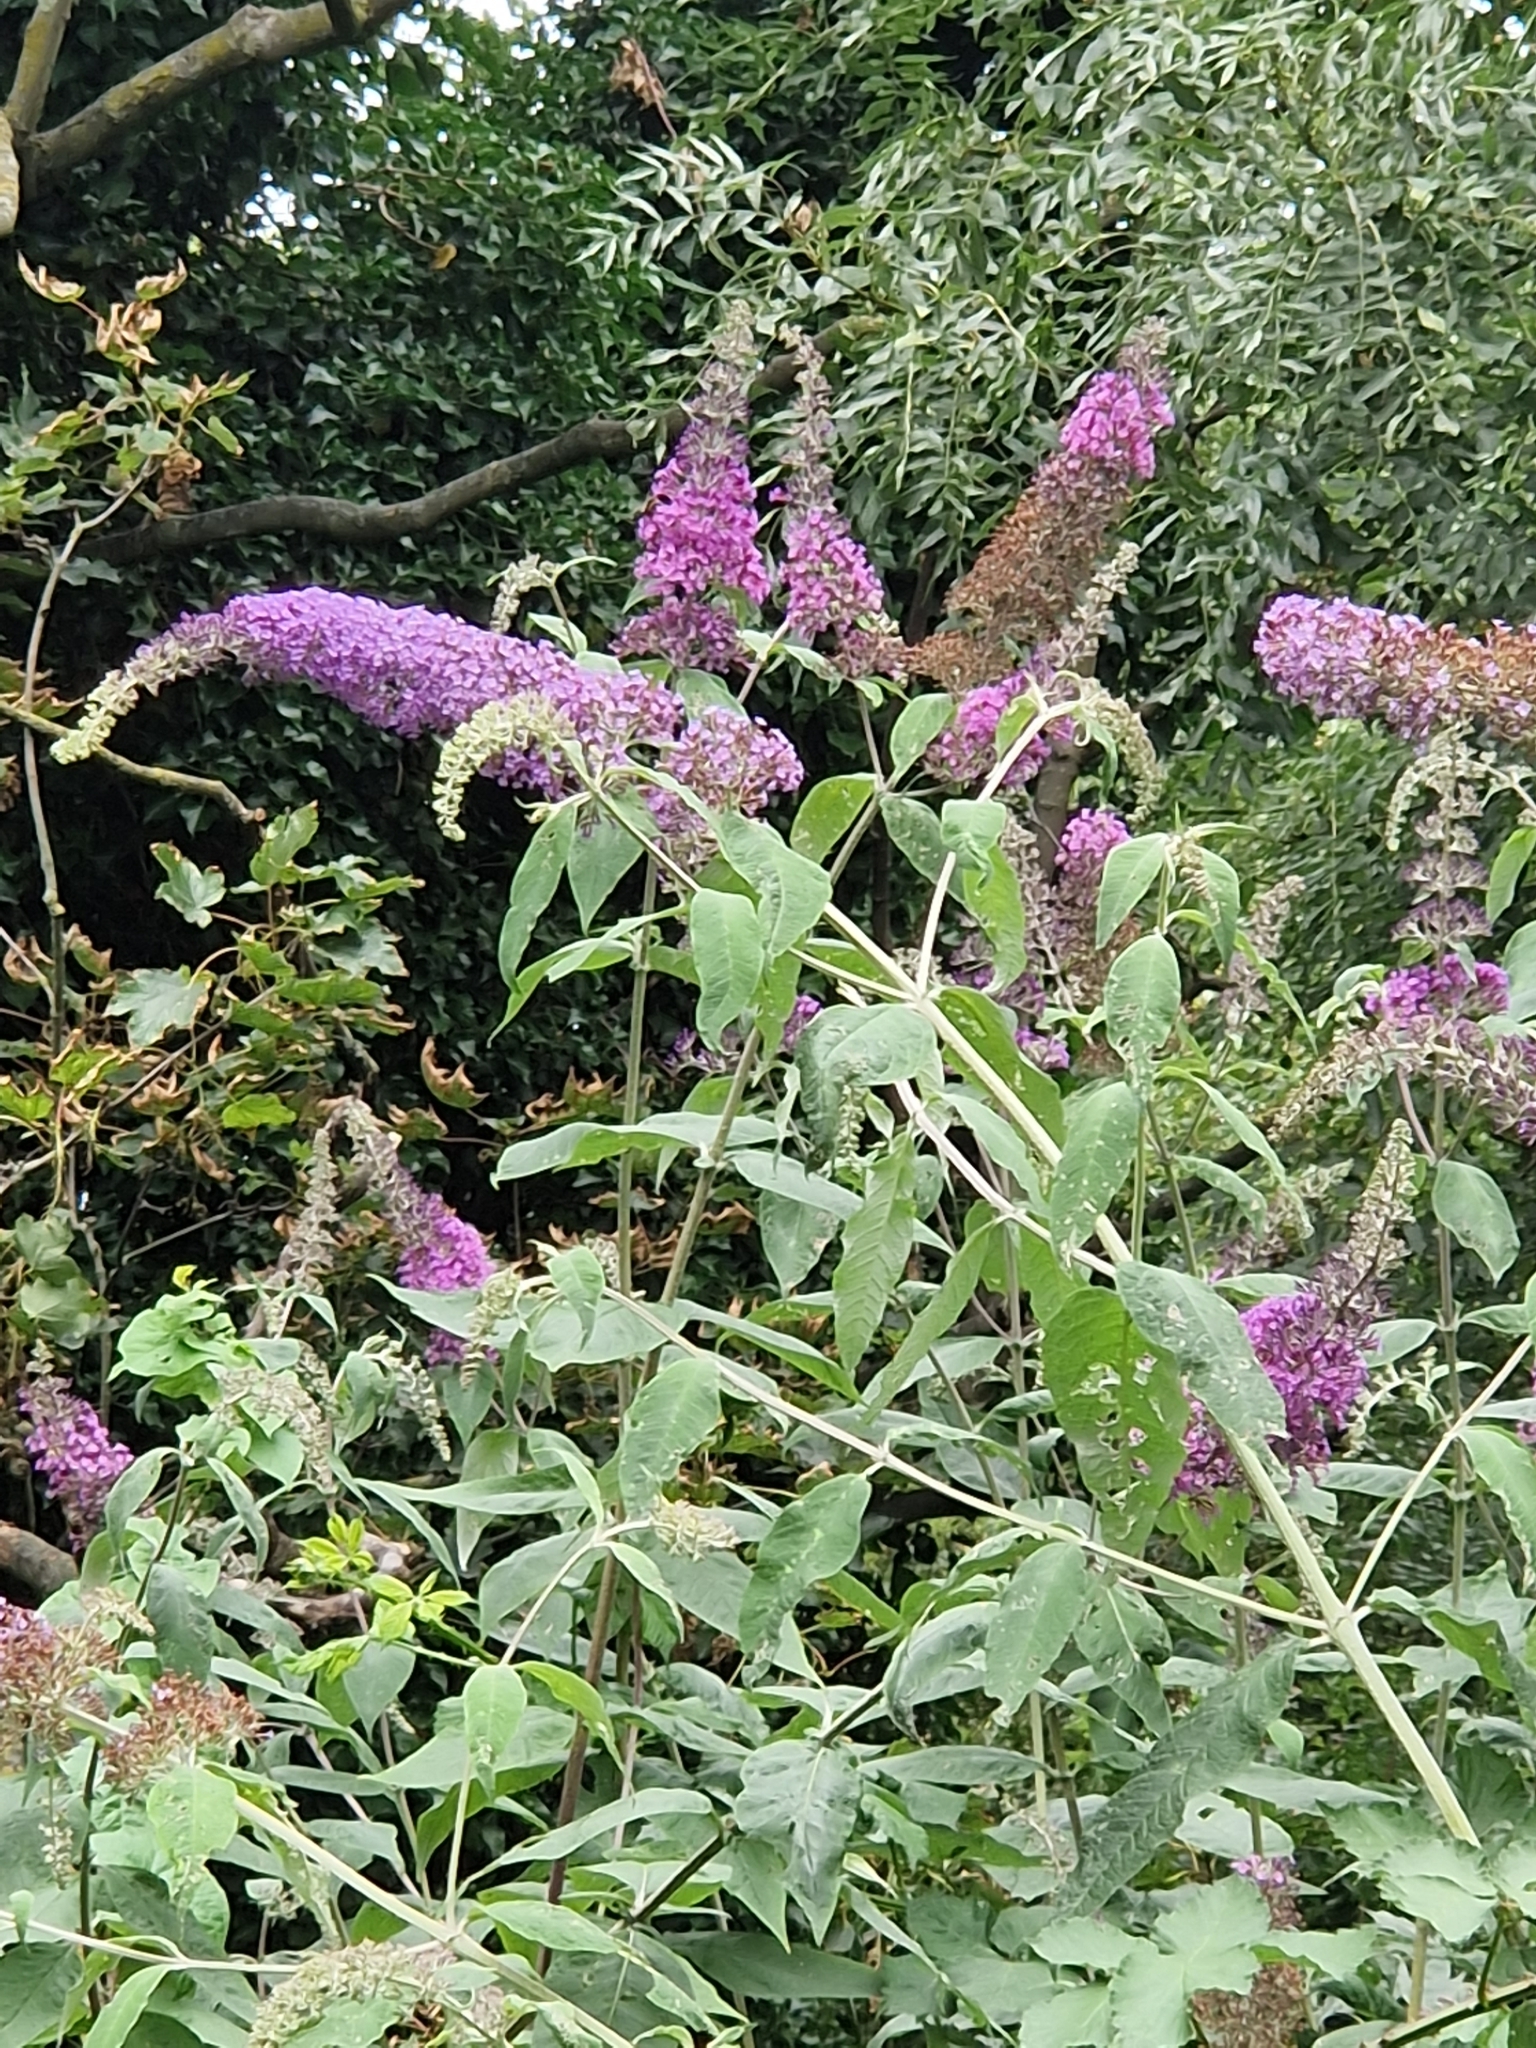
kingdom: Plantae
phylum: Tracheophyta
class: Magnoliopsida
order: Lamiales
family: Scrophulariaceae
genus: Buddleja
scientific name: Buddleja davidii
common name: Butterfly-bush
